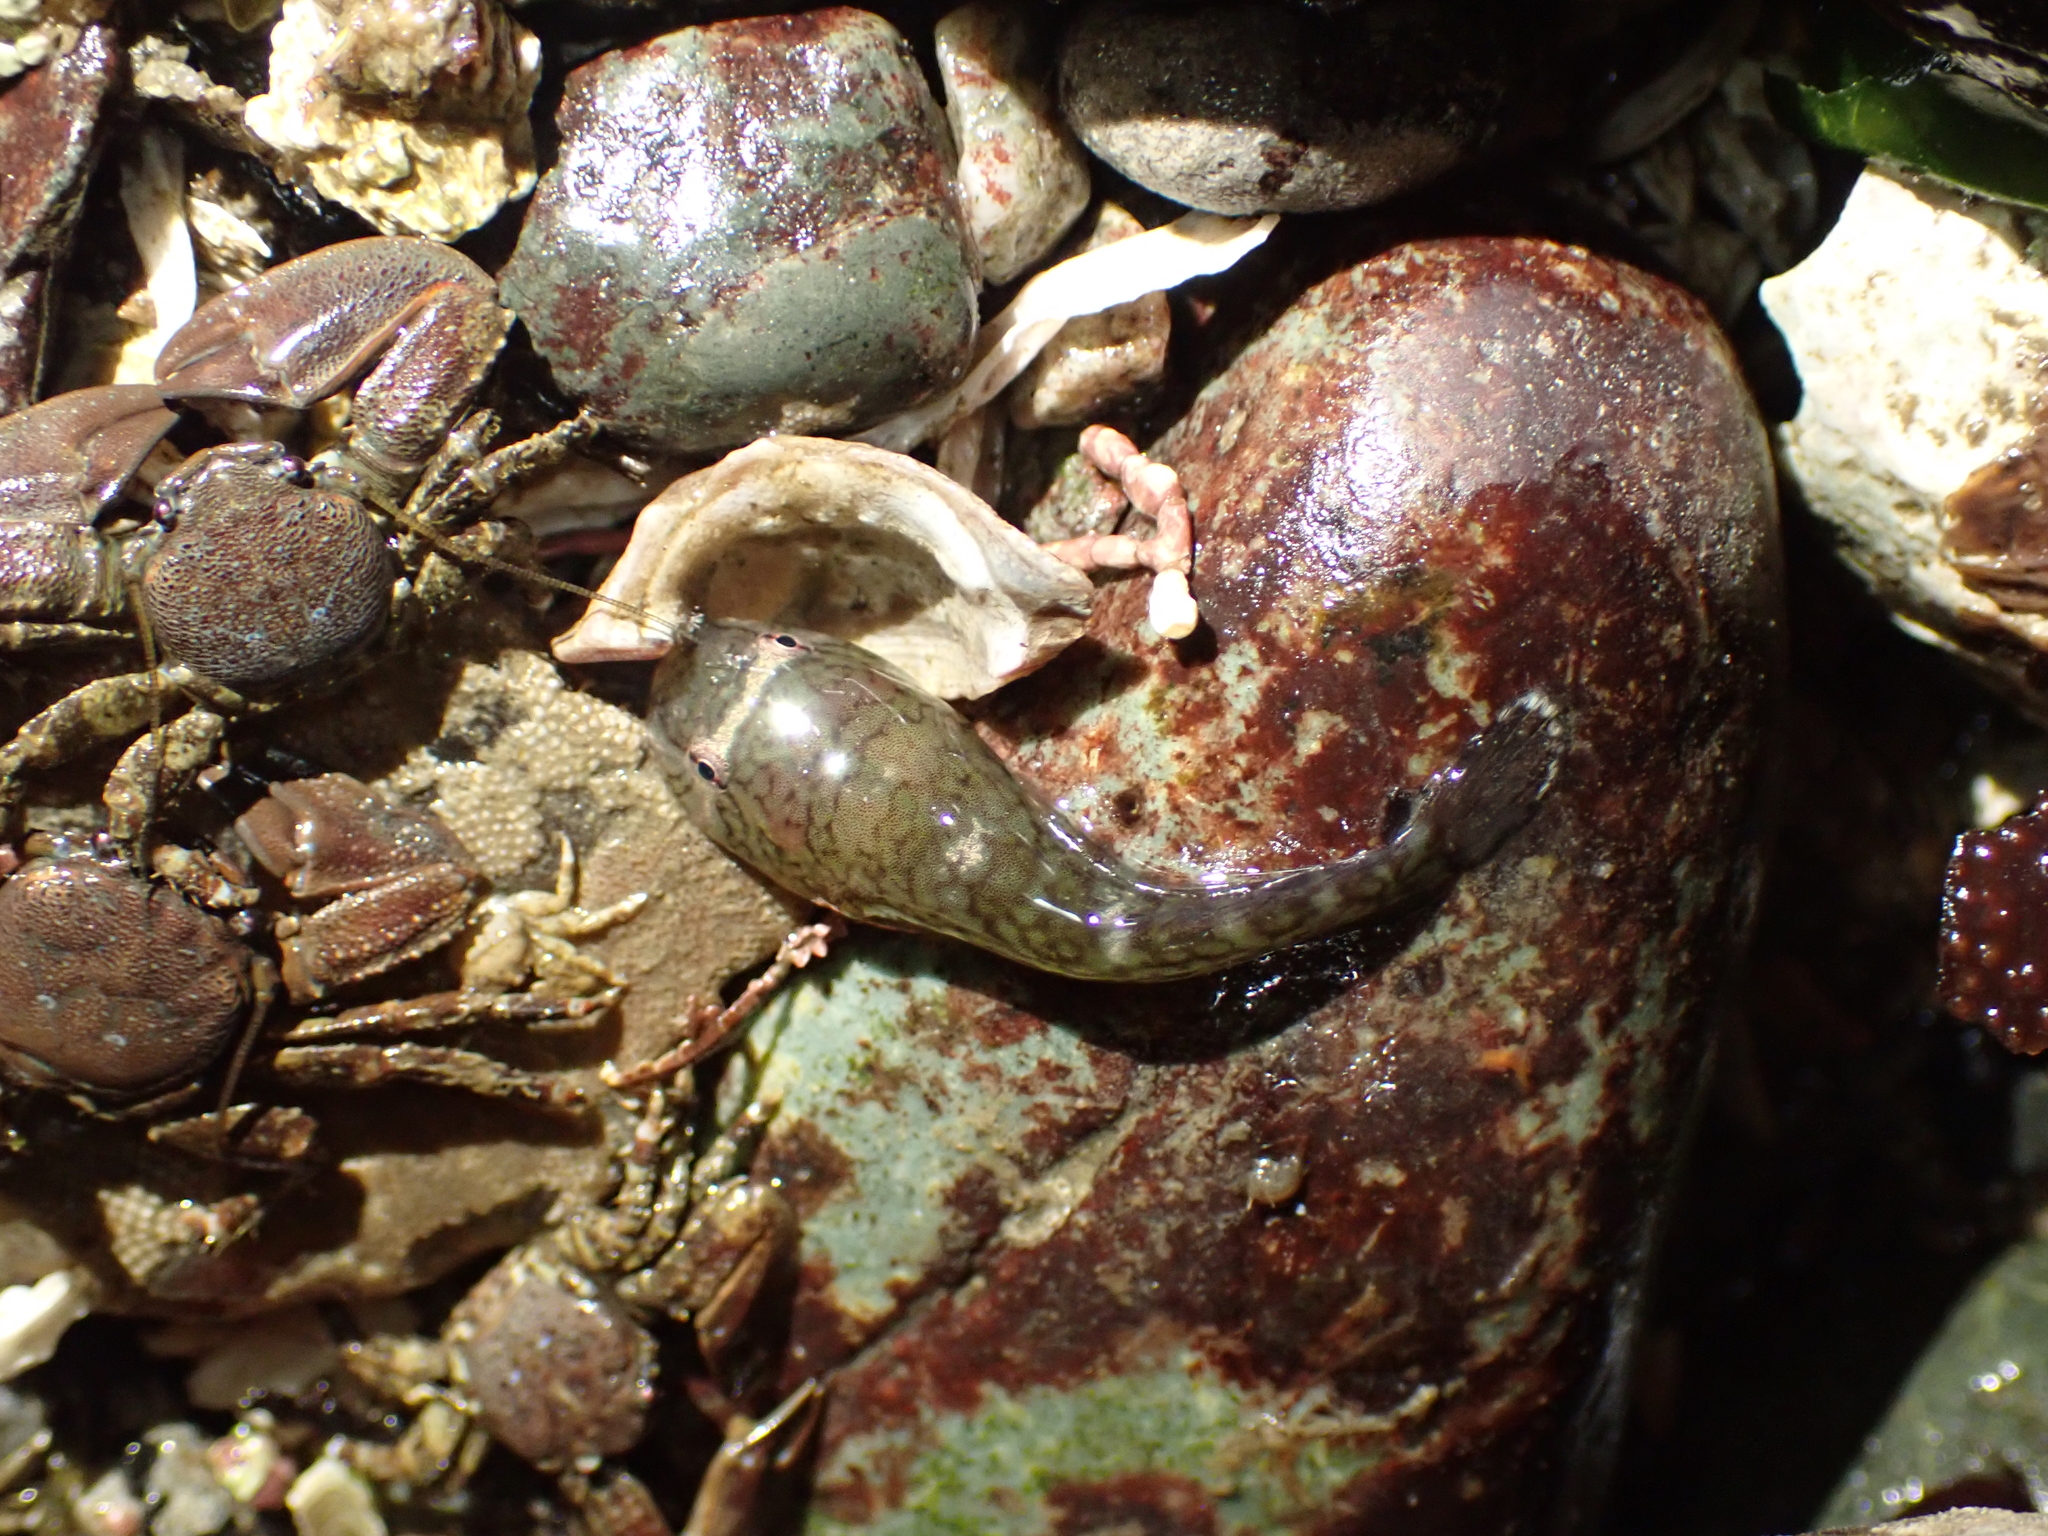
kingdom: Animalia
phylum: Chordata
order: Gobiesociformes
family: Gobiesocidae
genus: Gobiesox
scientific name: Gobiesox maeandricus
